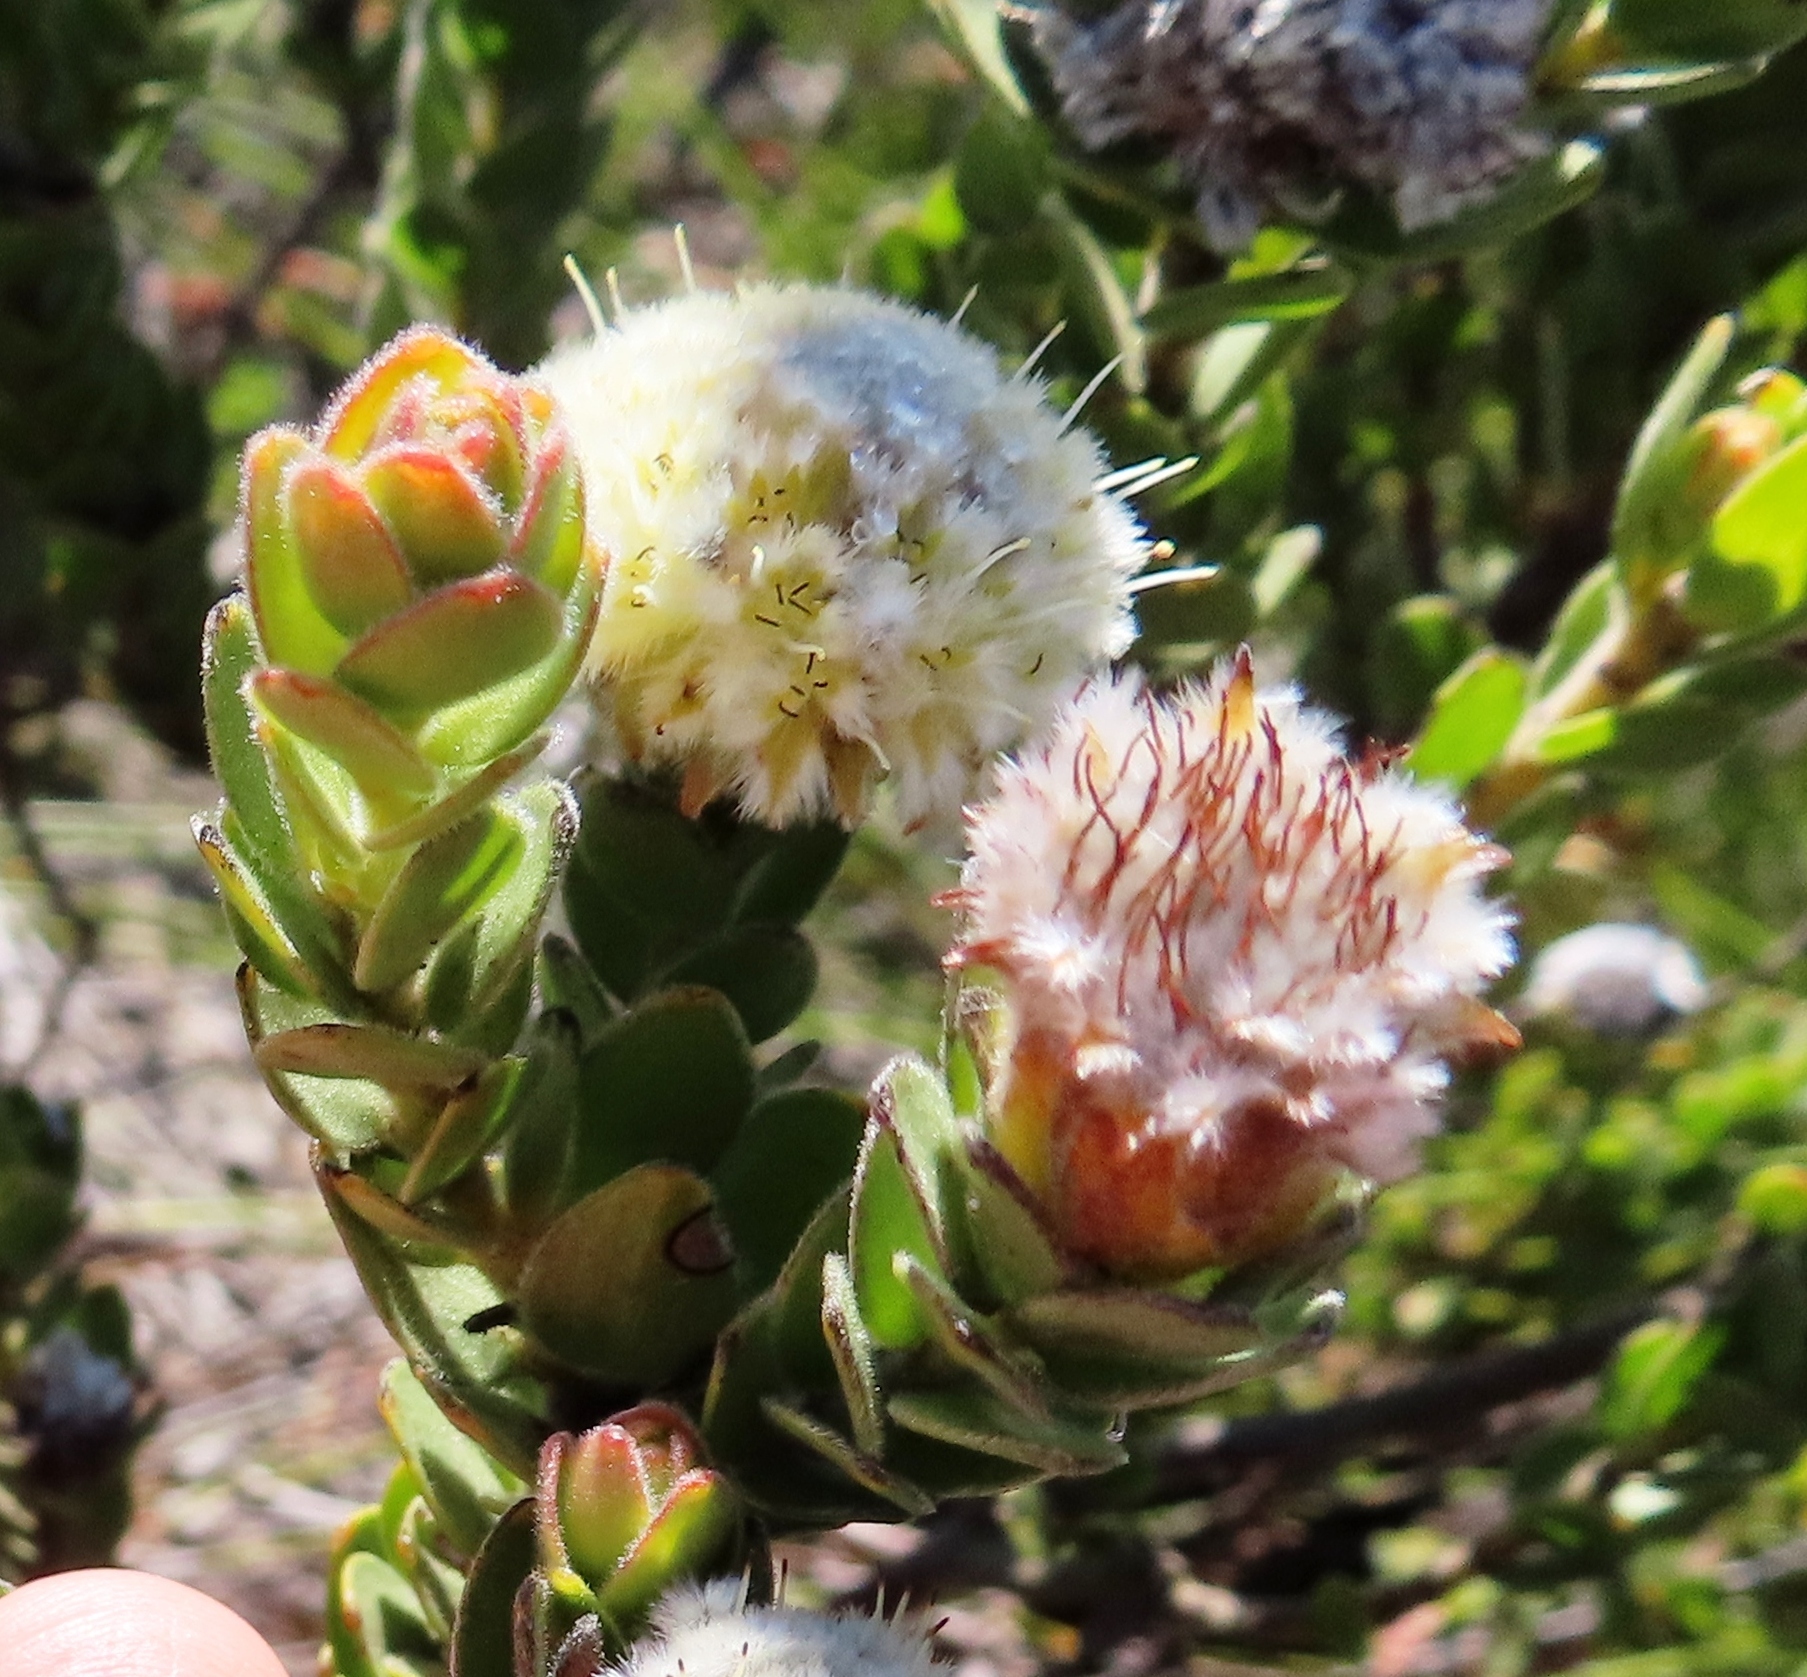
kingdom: Plantae
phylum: Tracheophyta
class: Magnoliopsida
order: Proteales
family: Proteaceae
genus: Diastella
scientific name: Diastella thymelaeoides
